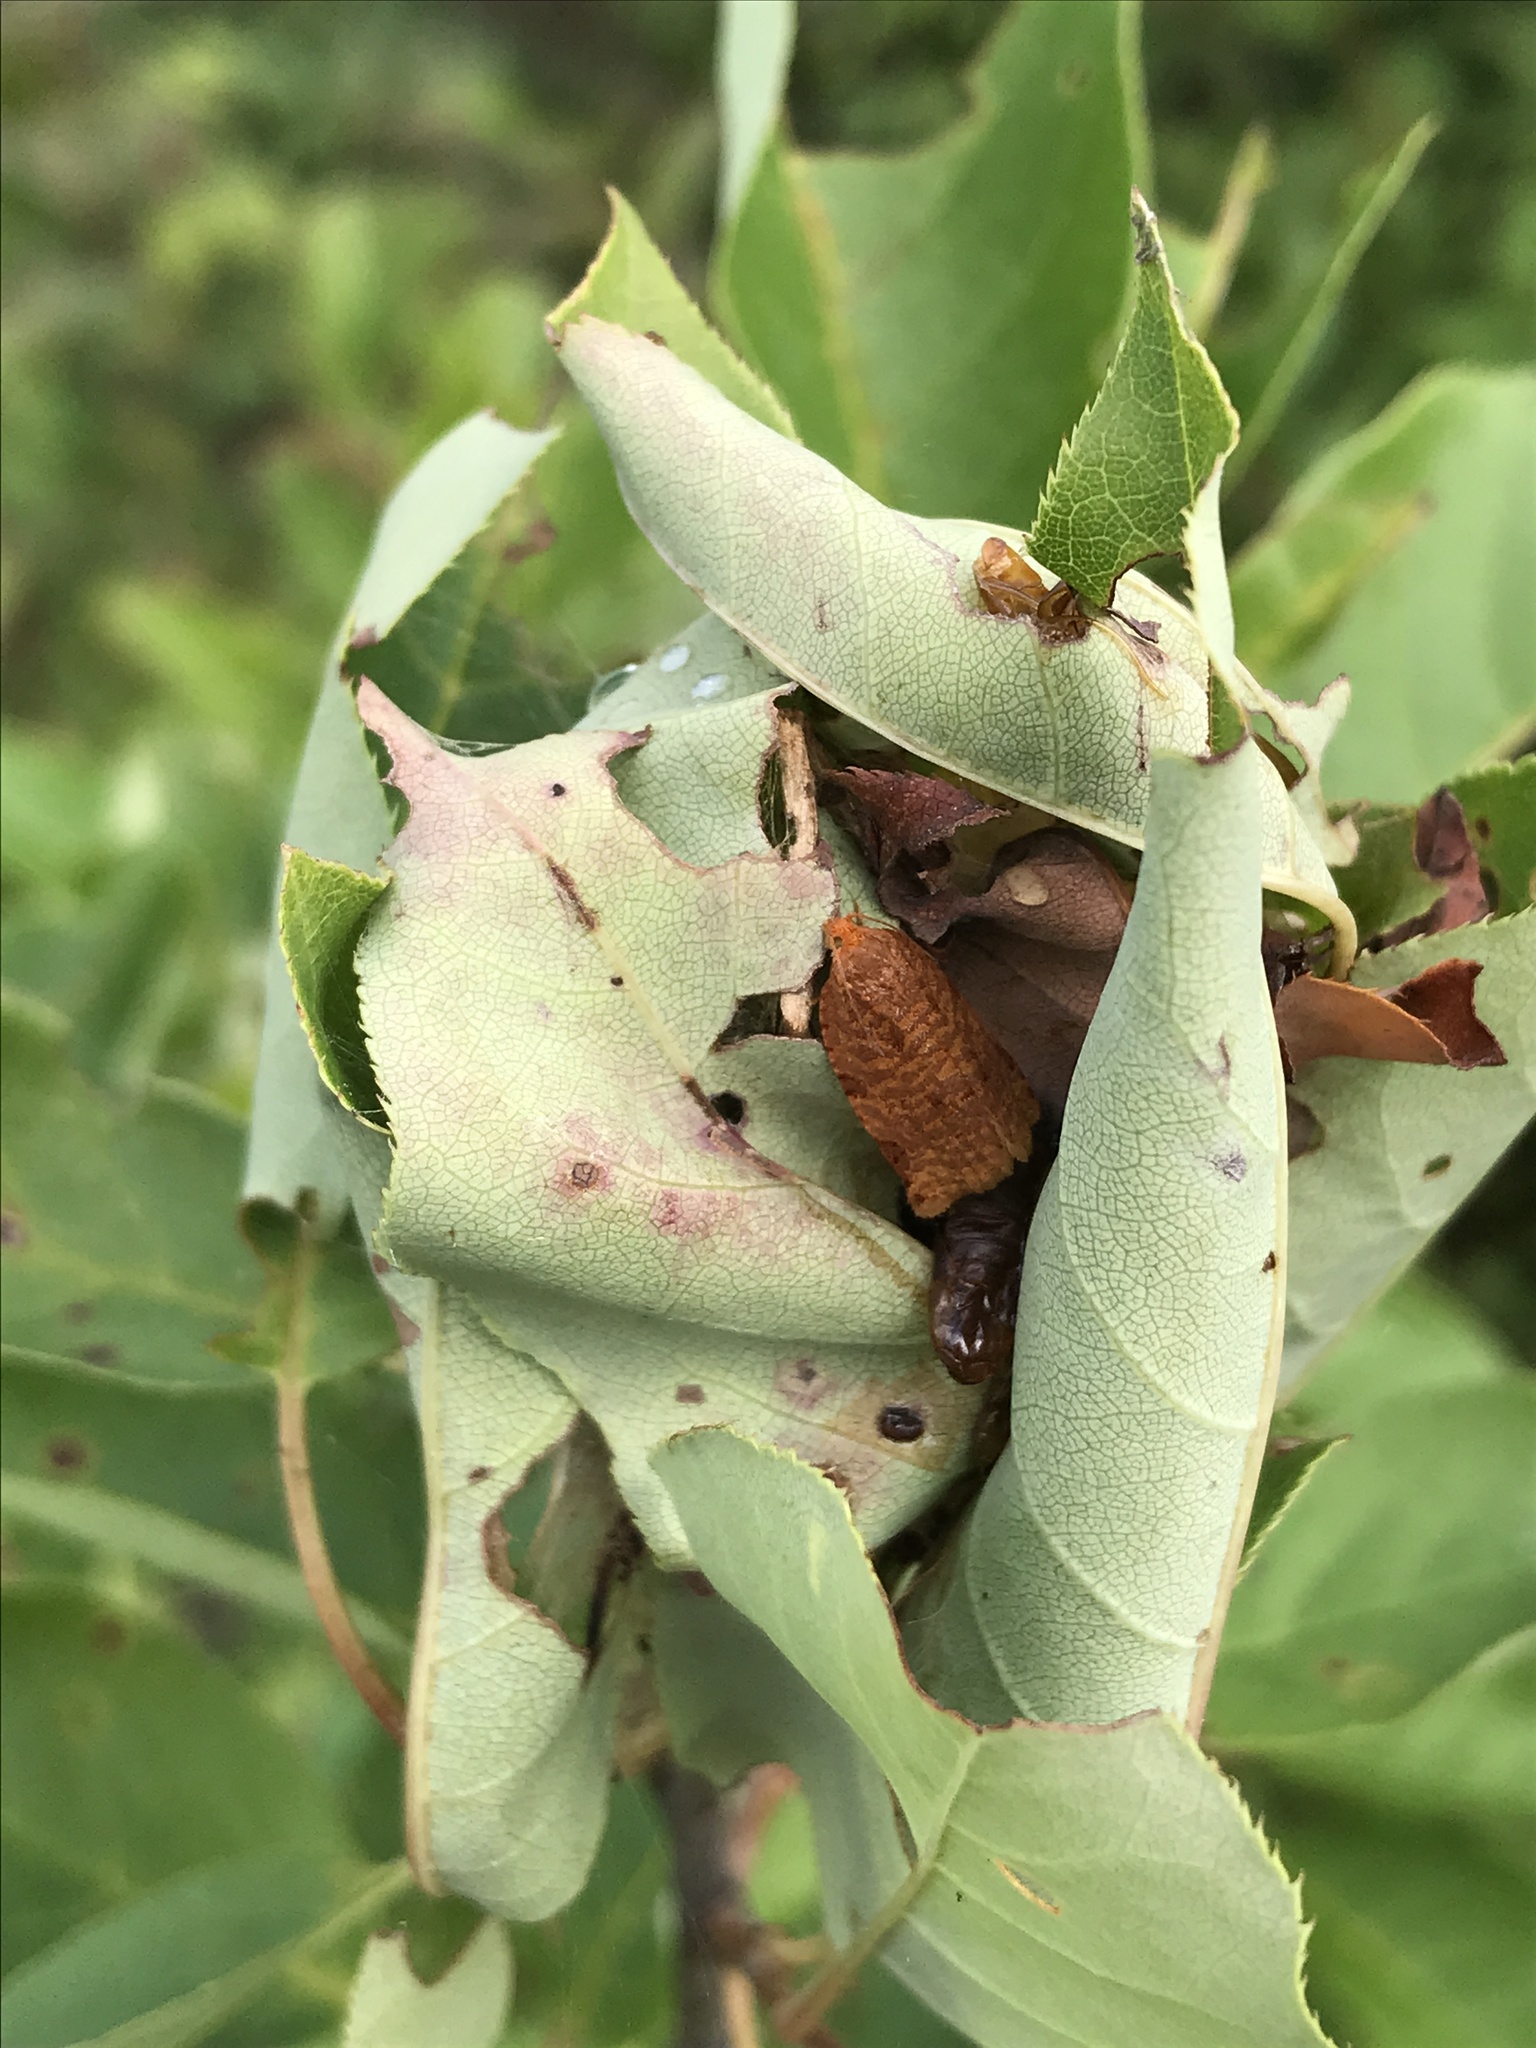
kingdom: Animalia
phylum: Arthropoda
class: Insecta
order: Lepidoptera
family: Tortricidae
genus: Archips
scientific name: Archips cerasivorana
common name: Uglynest caterpillar
